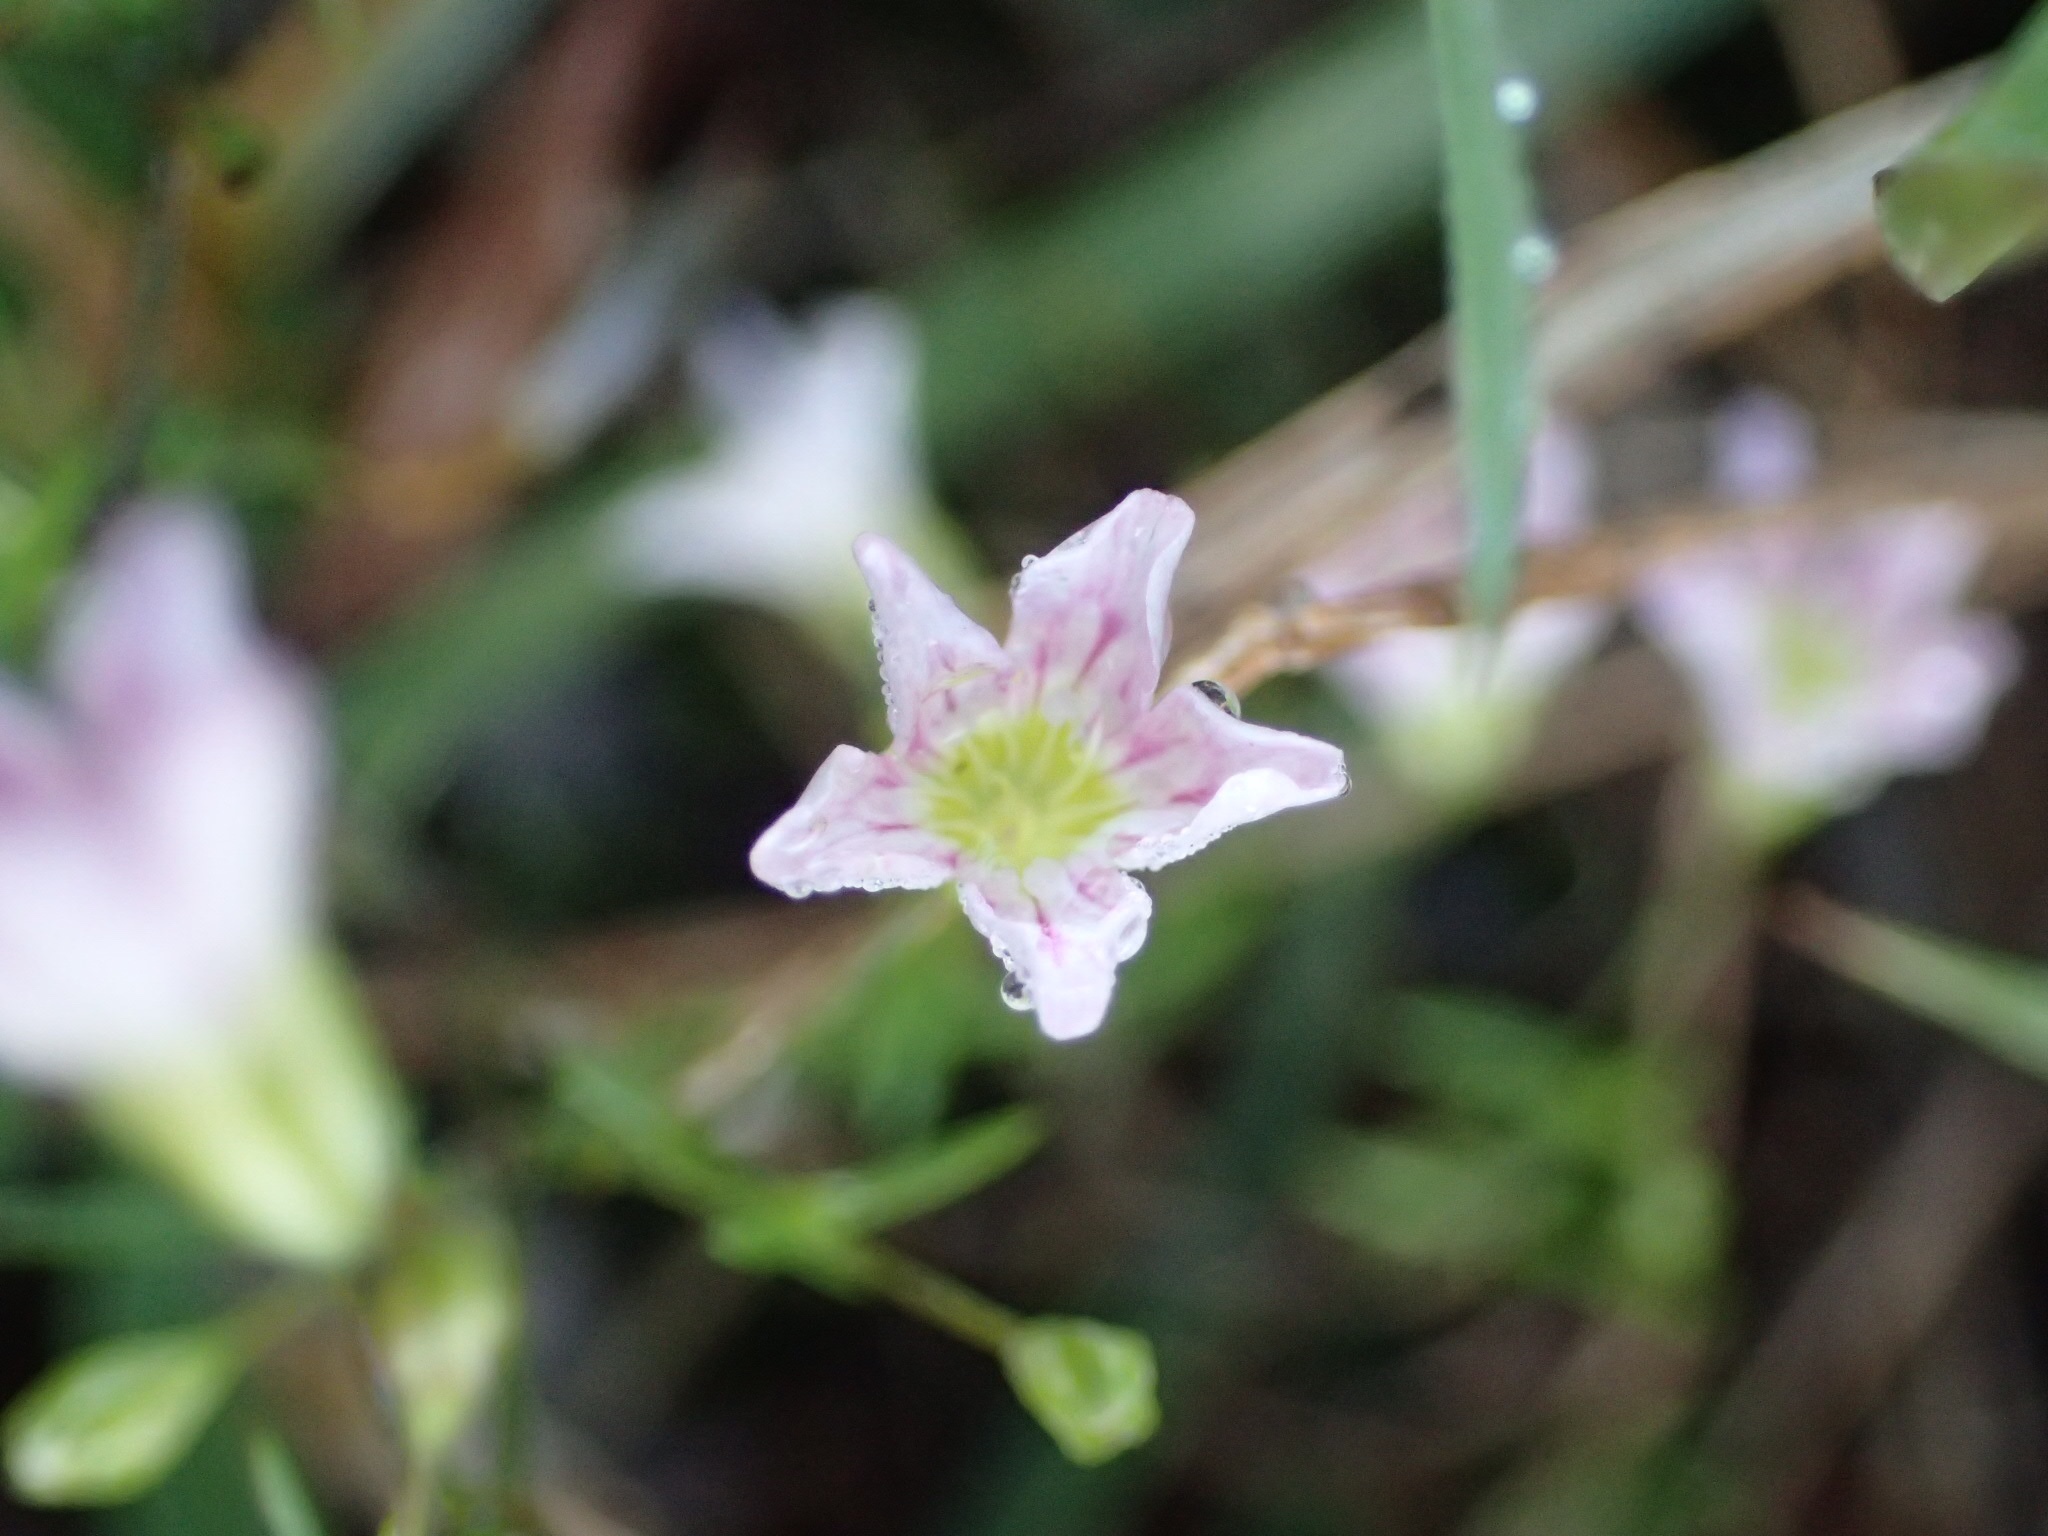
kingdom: Plantae
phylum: Tracheophyta
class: Magnoliopsida
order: Caryophyllales
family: Caryophyllaceae
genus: Psammophiliella
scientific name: Psammophiliella muralis
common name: Cushion baby's-breath
